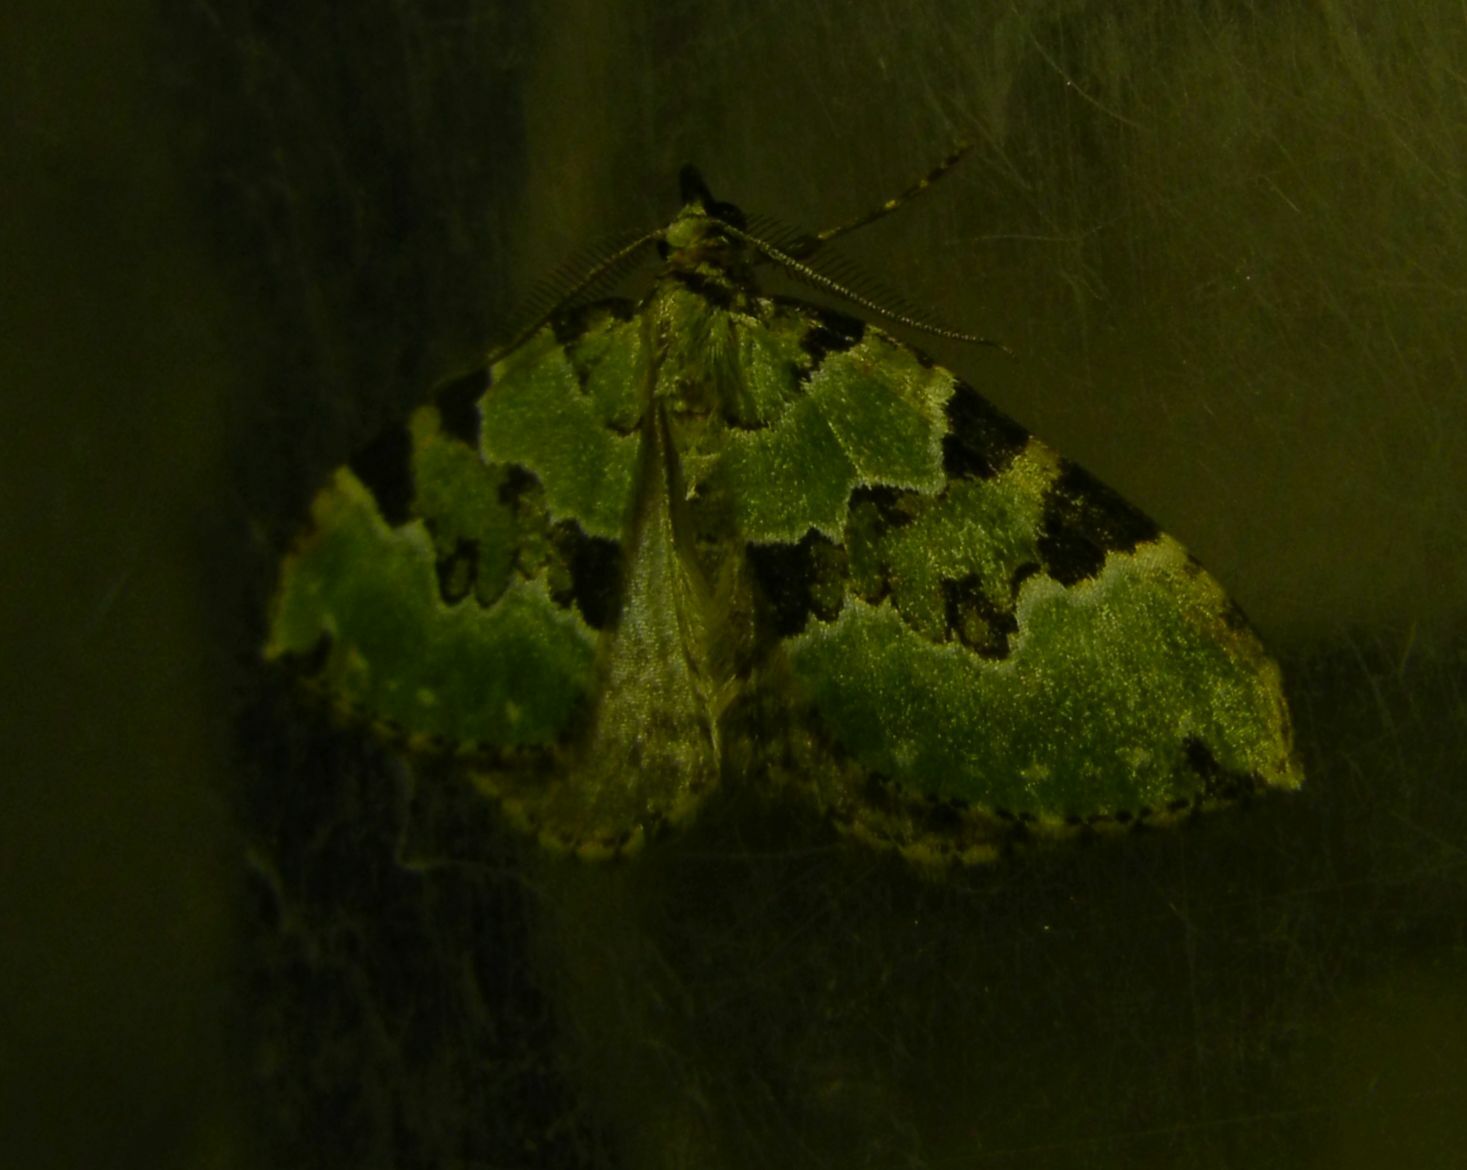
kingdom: Animalia
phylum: Arthropoda
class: Insecta
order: Lepidoptera
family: Geometridae
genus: Colostygia
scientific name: Colostygia pectinataria
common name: Green carpet
